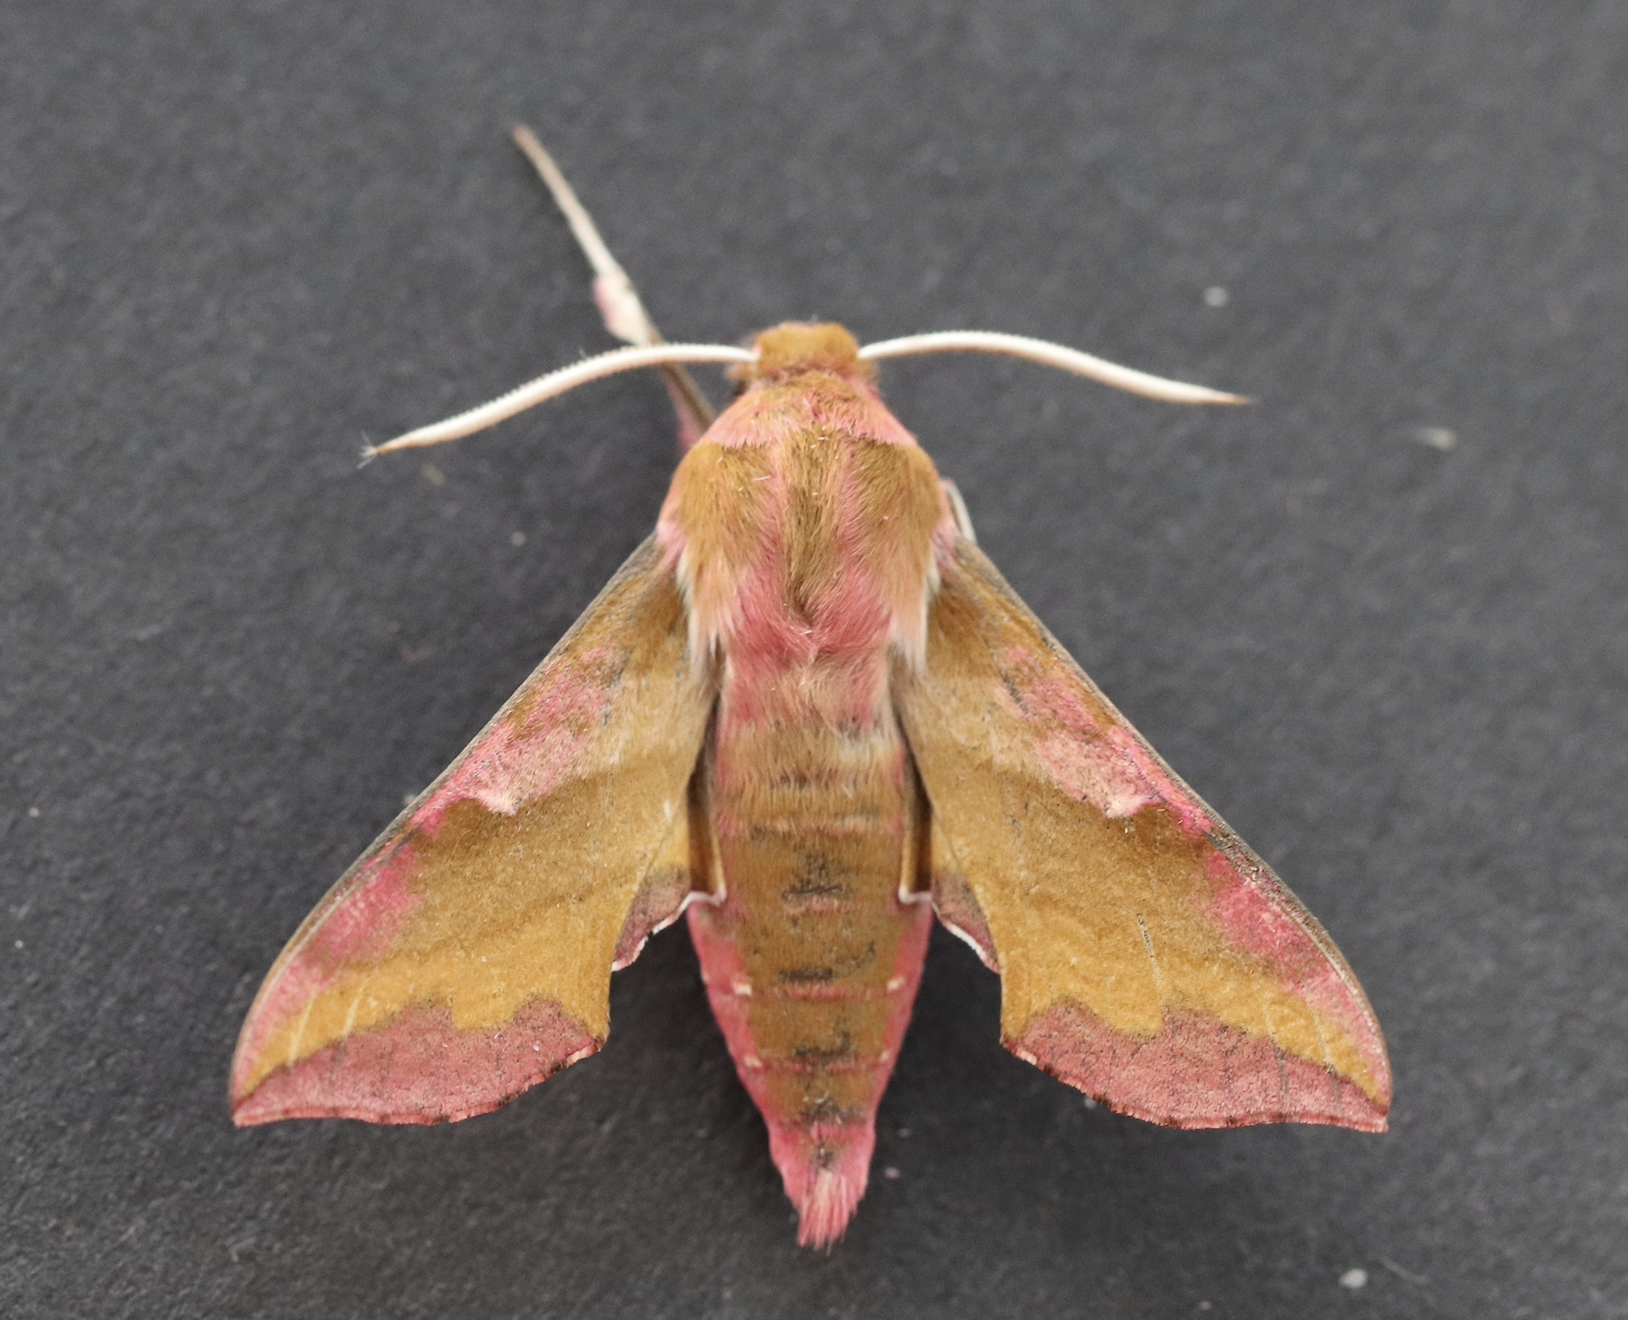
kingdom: Animalia
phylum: Arthropoda
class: Insecta
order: Lepidoptera
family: Sphingidae
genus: Deilephila
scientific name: Deilephila porcellus
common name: Small elephant hawk-moth
